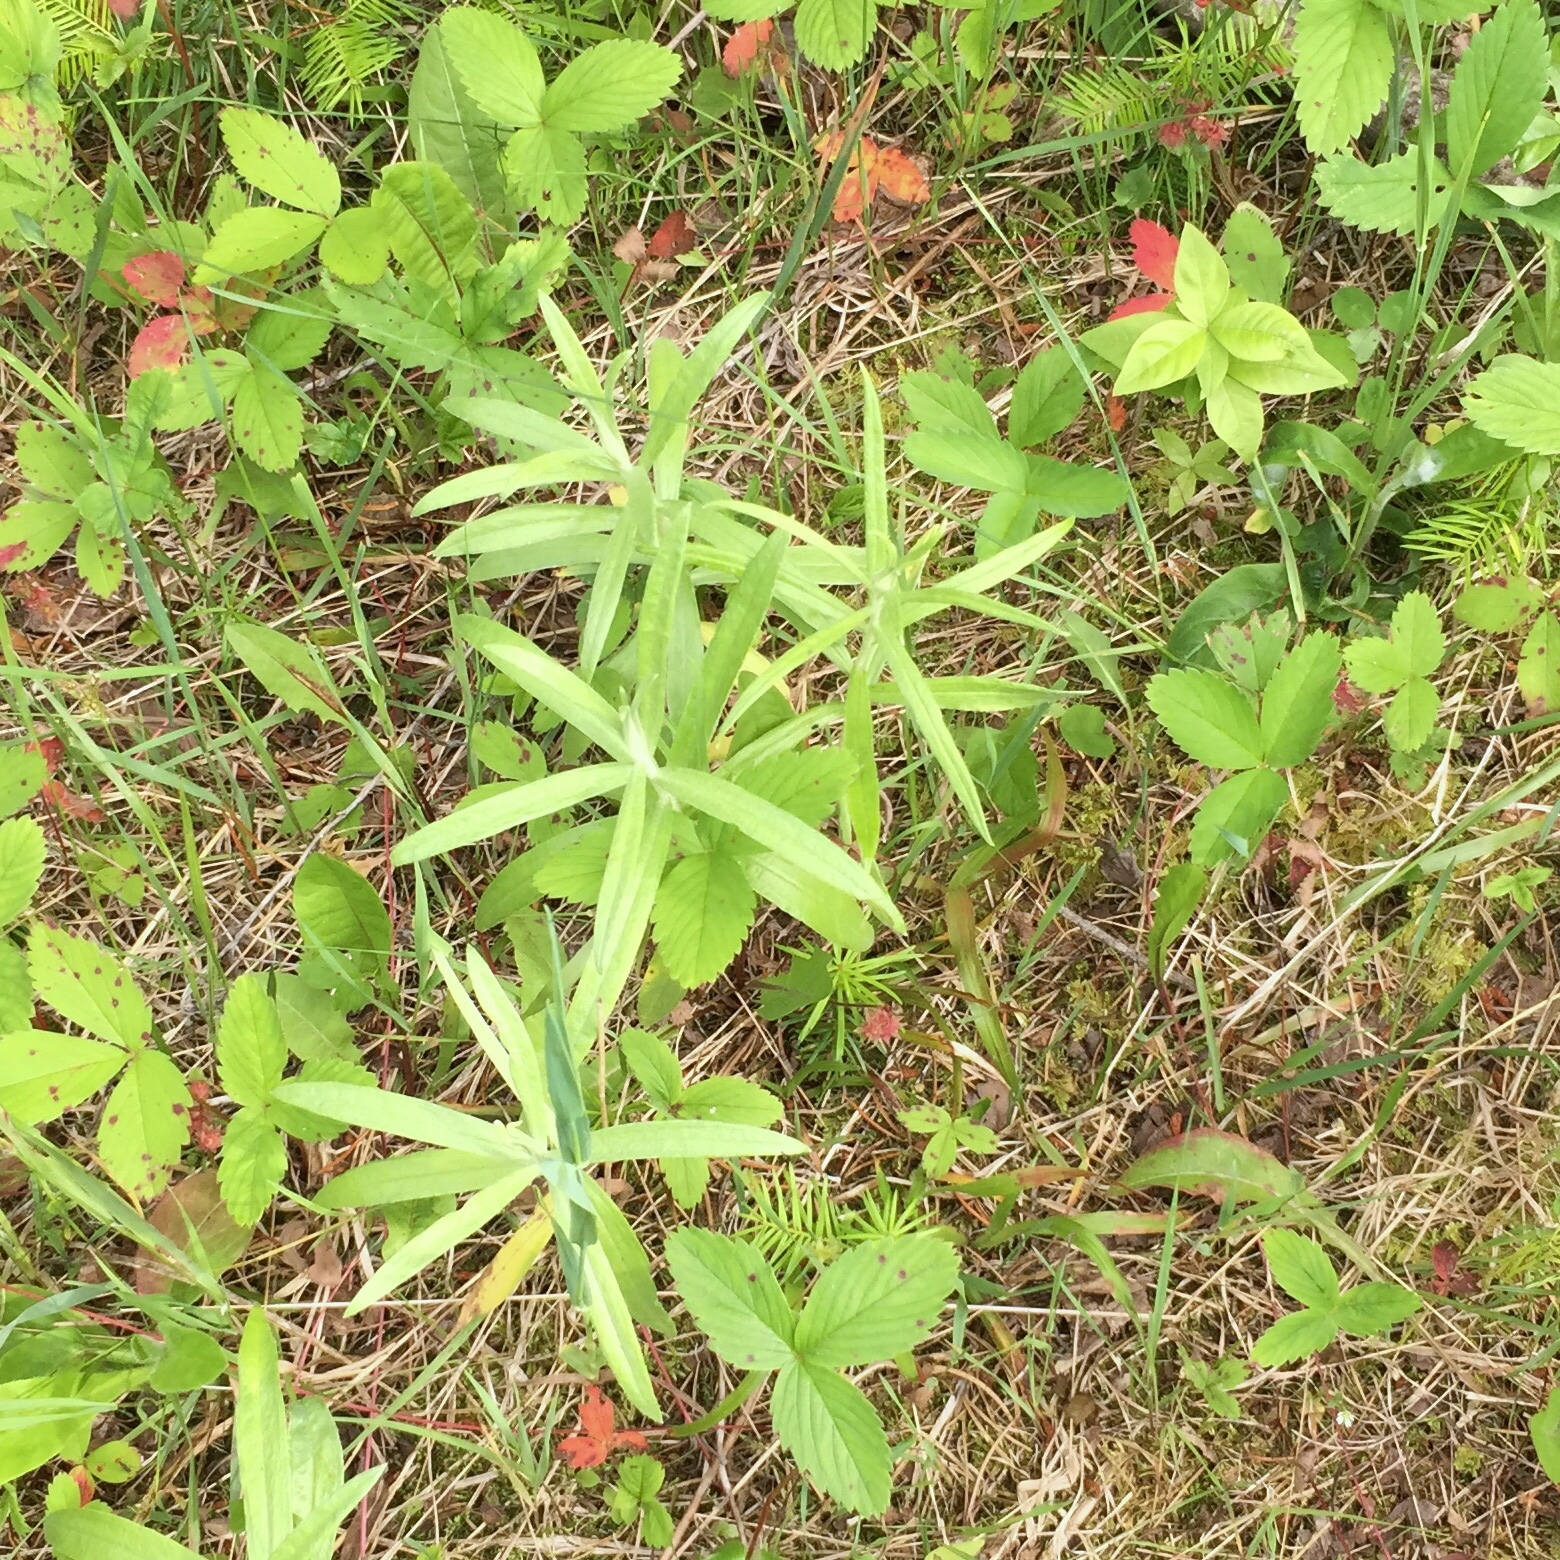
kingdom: Plantae
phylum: Tracheophyta
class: Magnoliopsida
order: Asterales
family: Asteraceae
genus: Artemisia
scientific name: Artemisia ludoviciana
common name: Western mugwort
